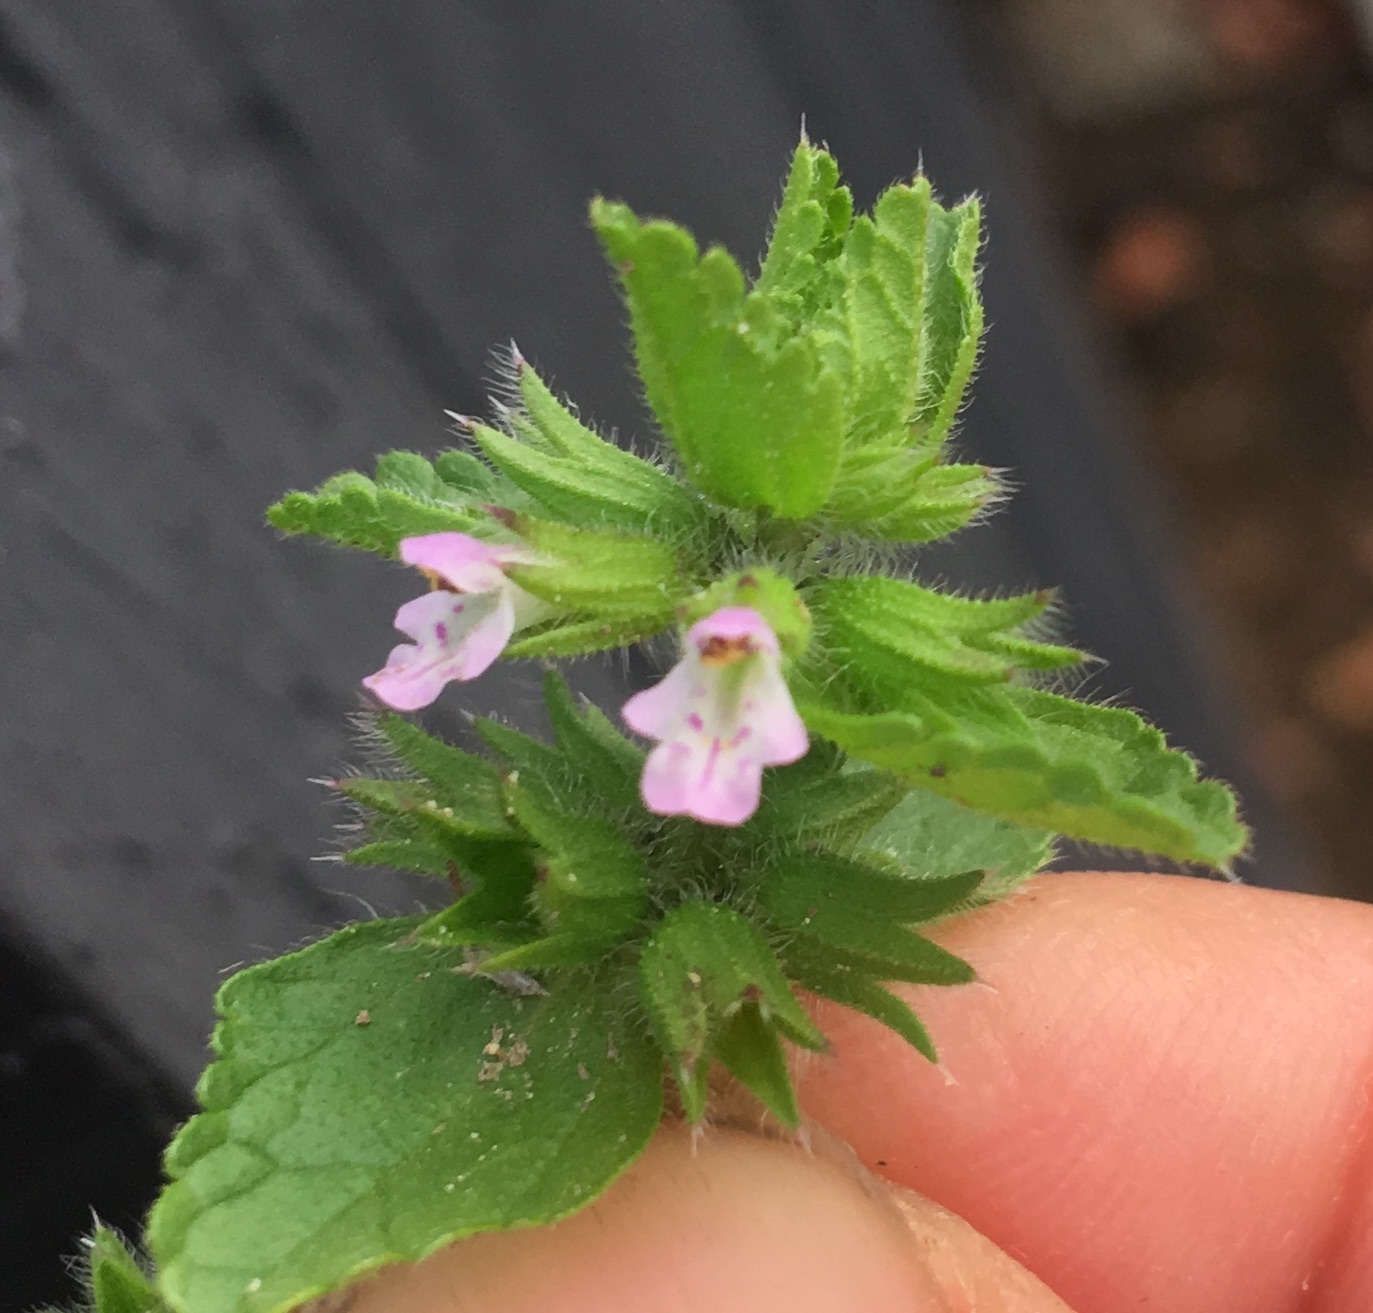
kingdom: Plantae
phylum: Tracheophyta
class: Magnoliopsida
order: Lamiales
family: Lamiaceae
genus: Stachys
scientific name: Stachys arvensis
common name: Field woundwort
